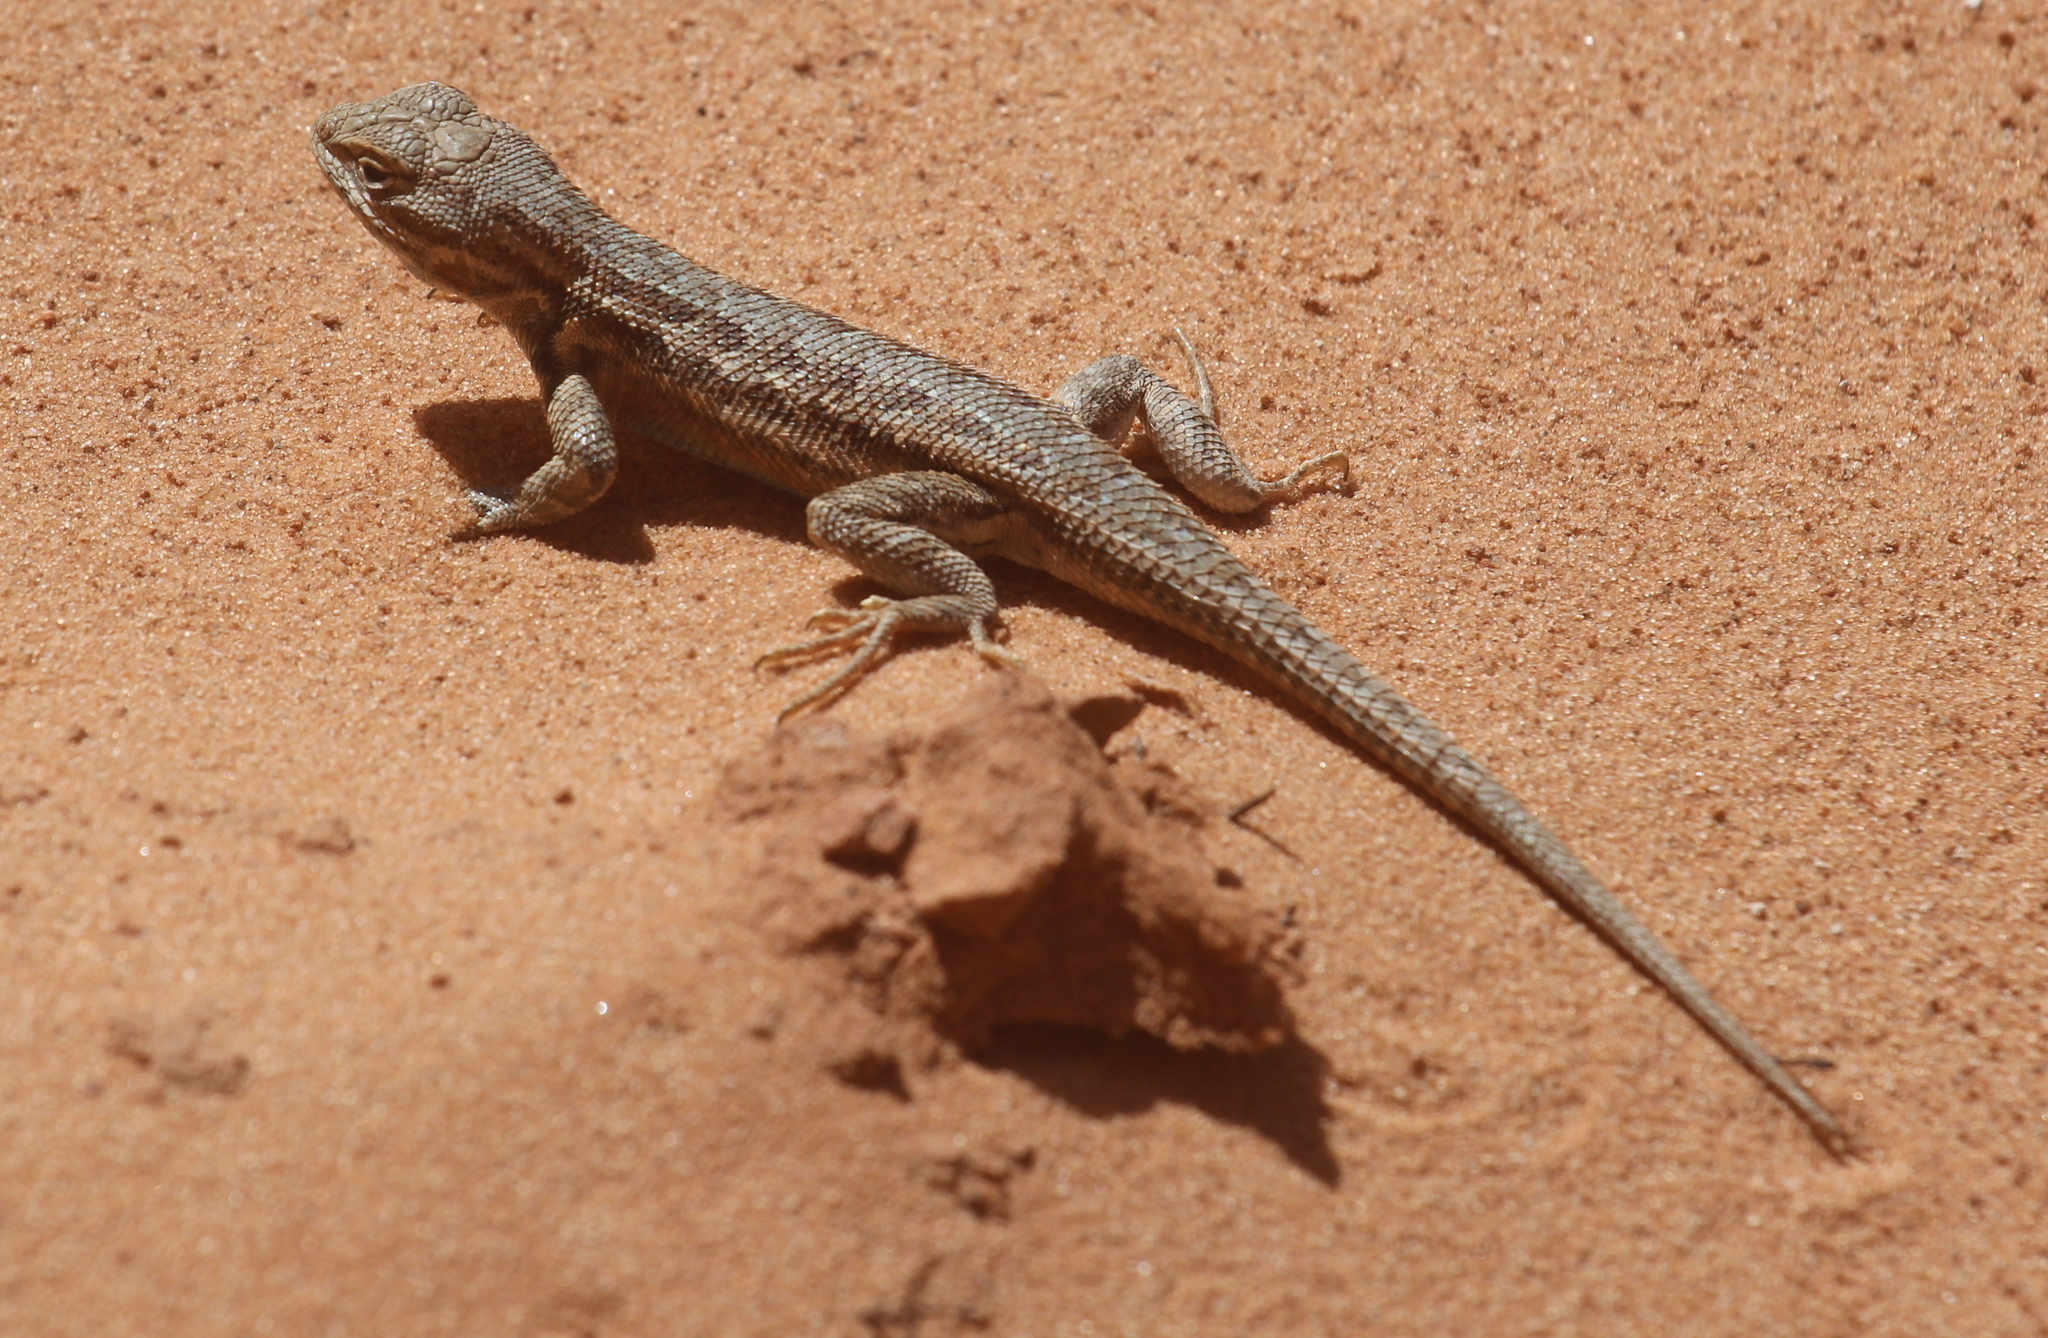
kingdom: Animalia
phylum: Chordata
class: Squamata
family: Phrynosomatidae
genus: Sceloporus
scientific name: Sceloporus graciosus
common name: Sagebrush lizard
